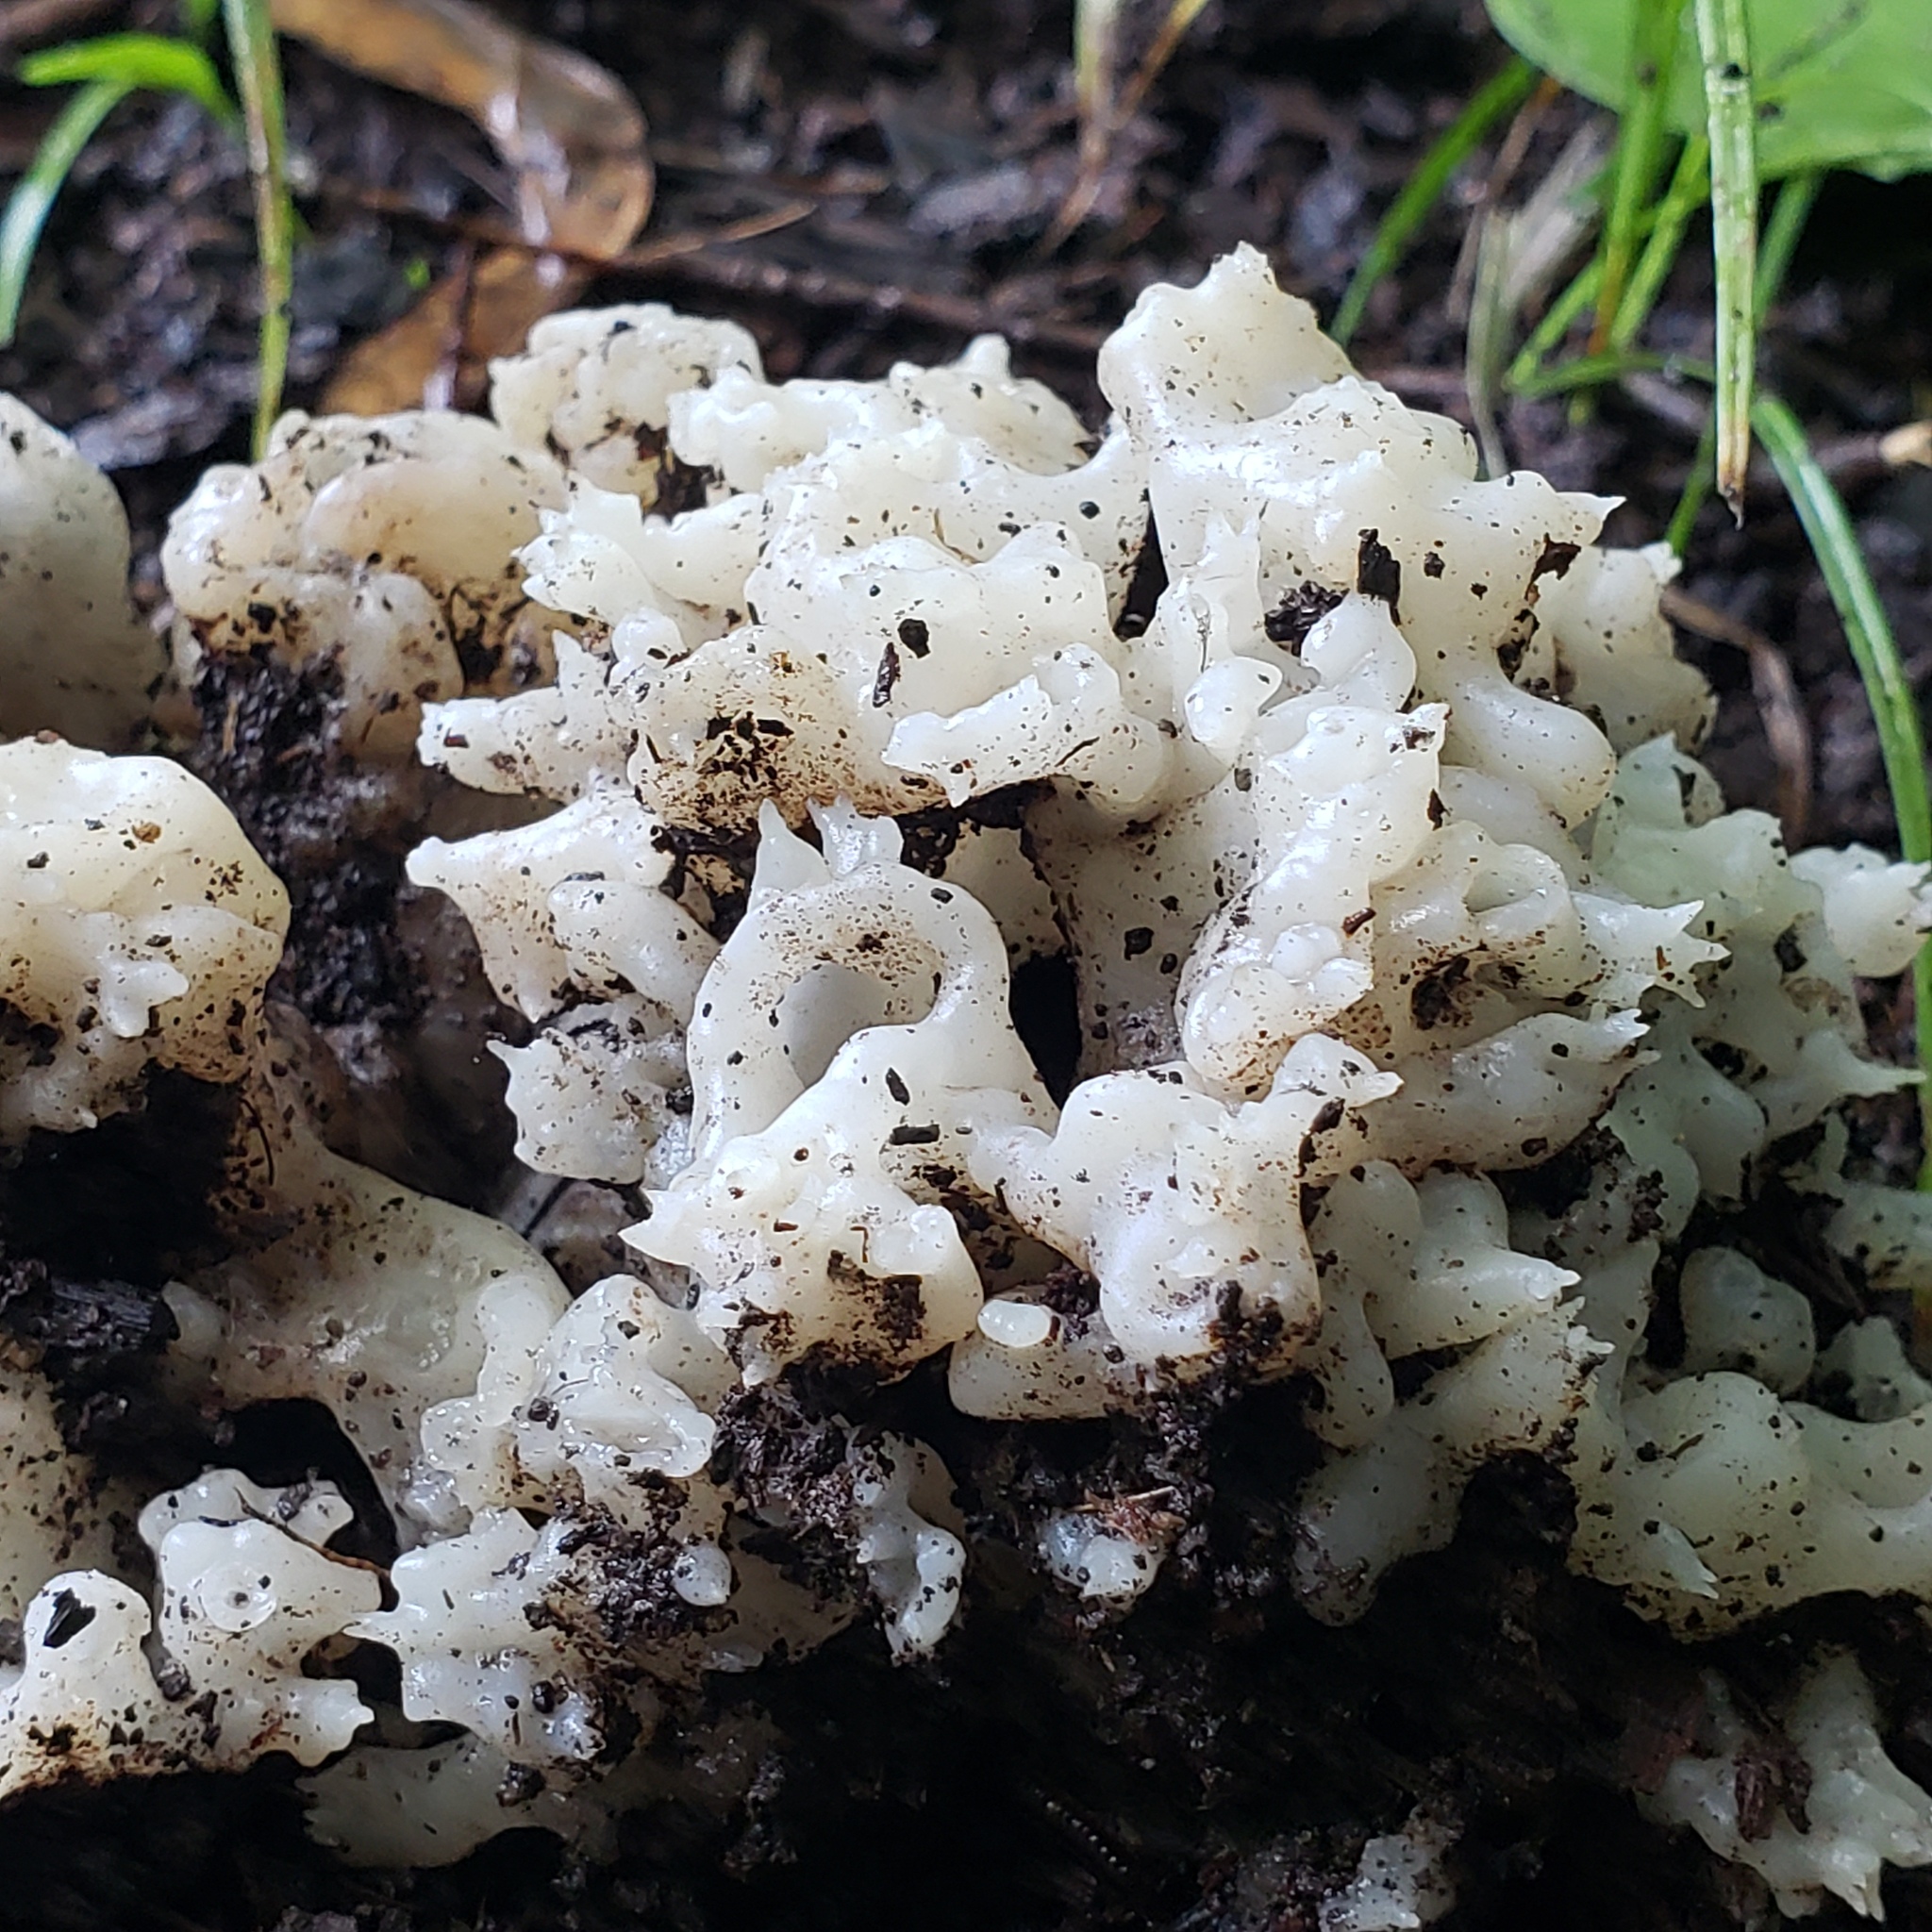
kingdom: Fungi
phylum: Basidiomycota
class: Agaricomycetes
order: Sebacinales
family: Sebacinaceae
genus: Sebacina
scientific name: Sebacina sparassoidea
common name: White coral jelly fungus
